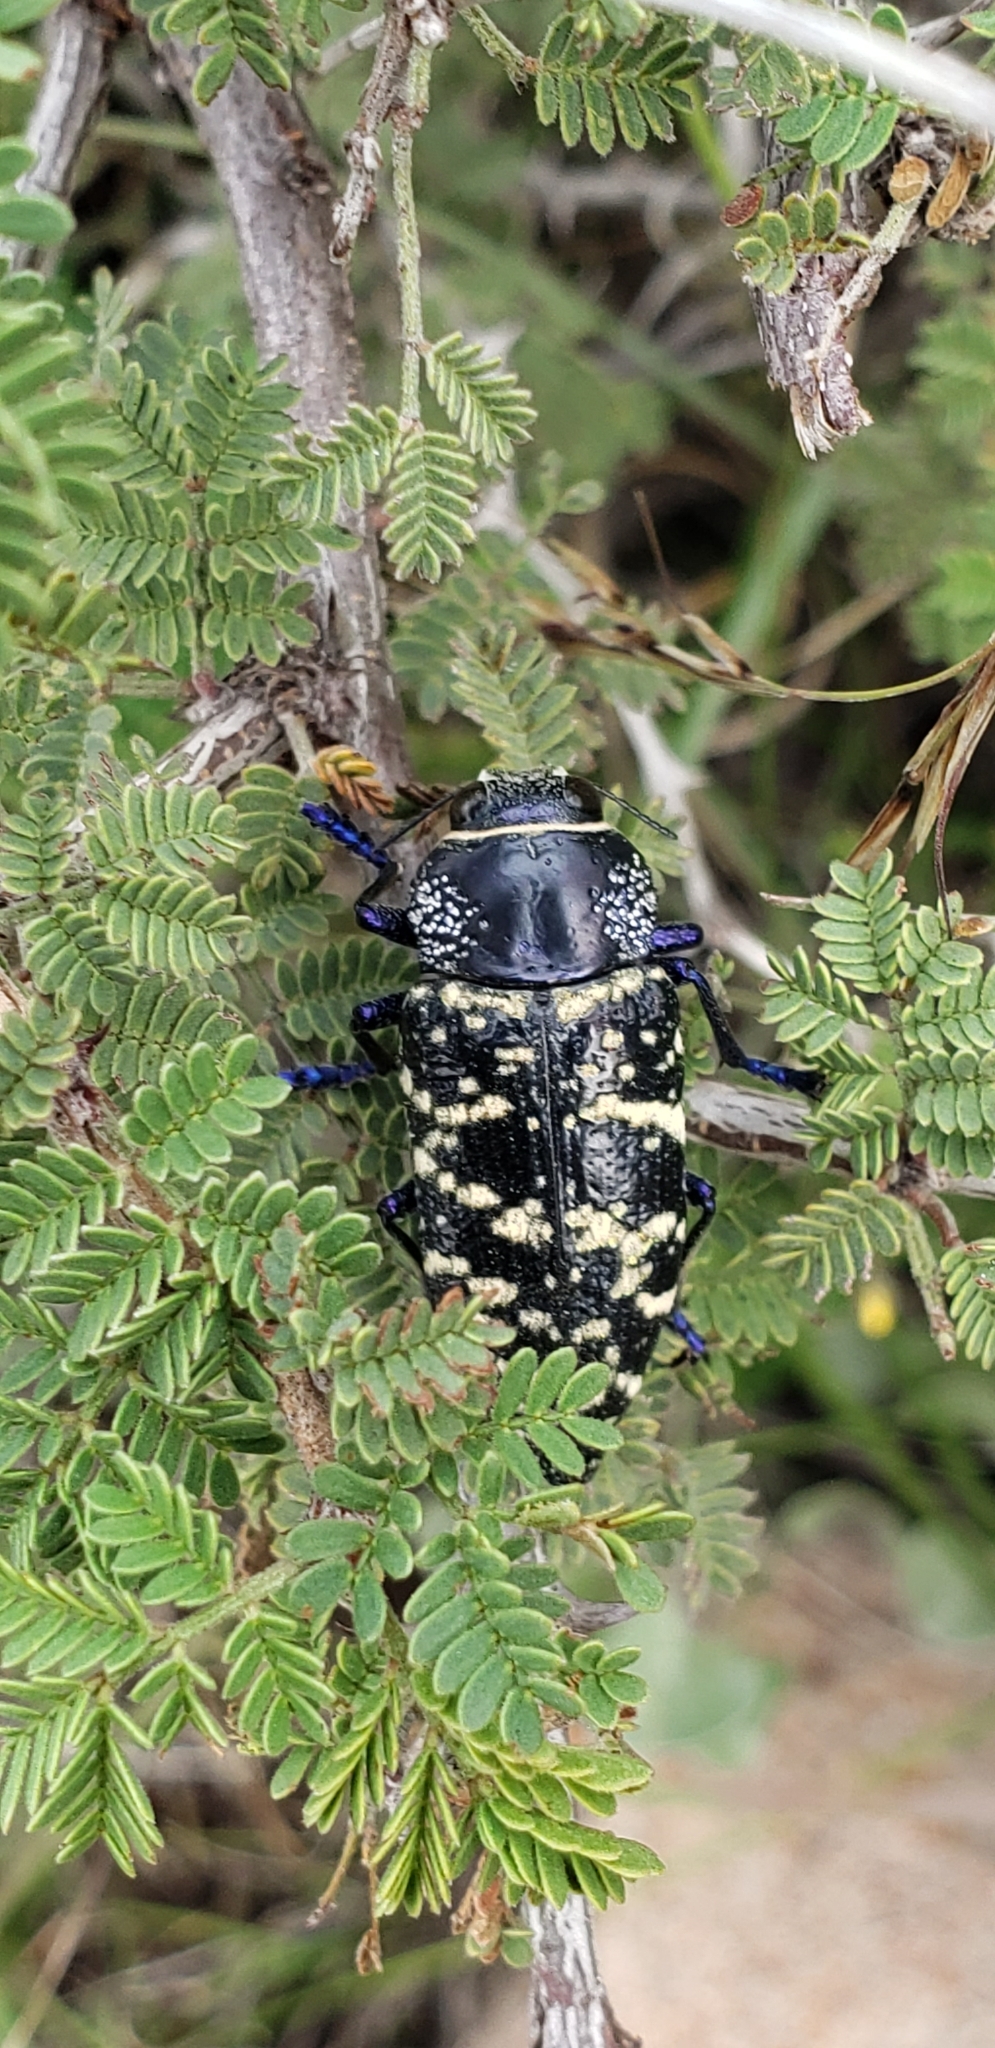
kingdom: Animalia
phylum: Arthropoda
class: Insecta
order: Coleoptera
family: Buprestidae
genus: Lampetis
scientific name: Lampetis dilaticollis
